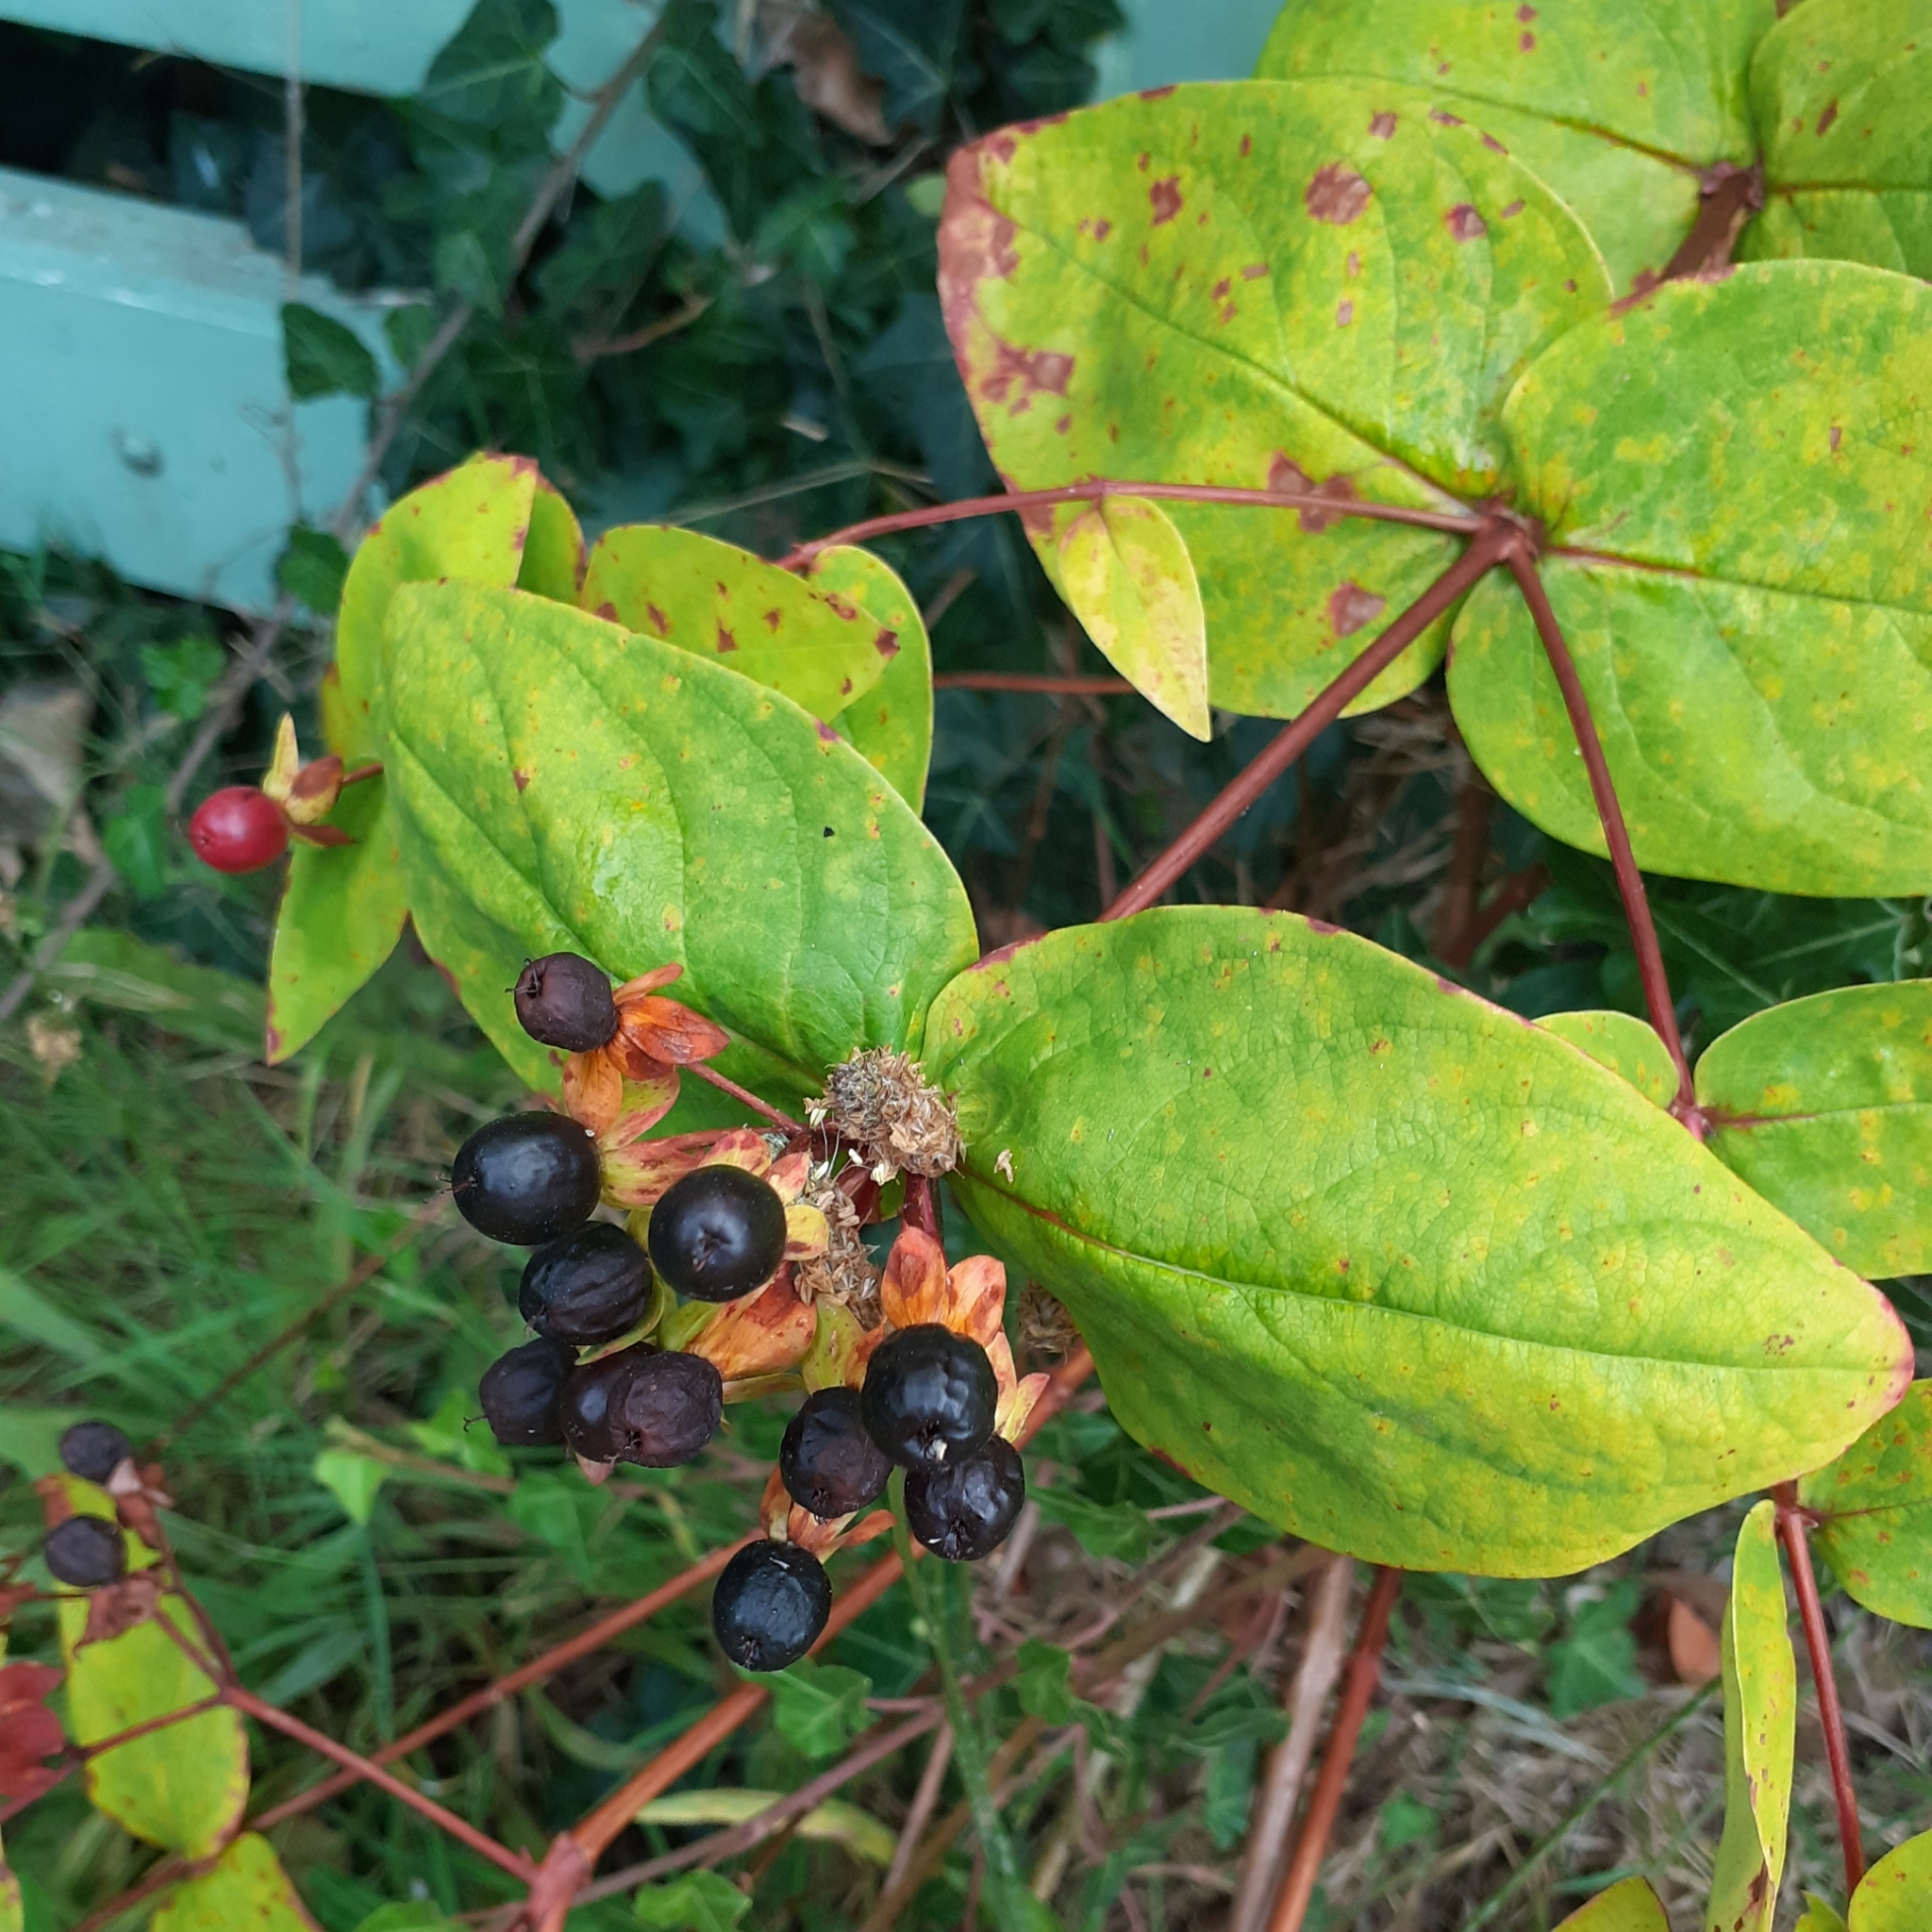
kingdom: Plantae
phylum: Tracheophyta
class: Magnoliopsida
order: Malpighiales
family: Hypericaceae
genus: Hypericum
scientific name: Hypericum androsaemum
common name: Sweet-amber
